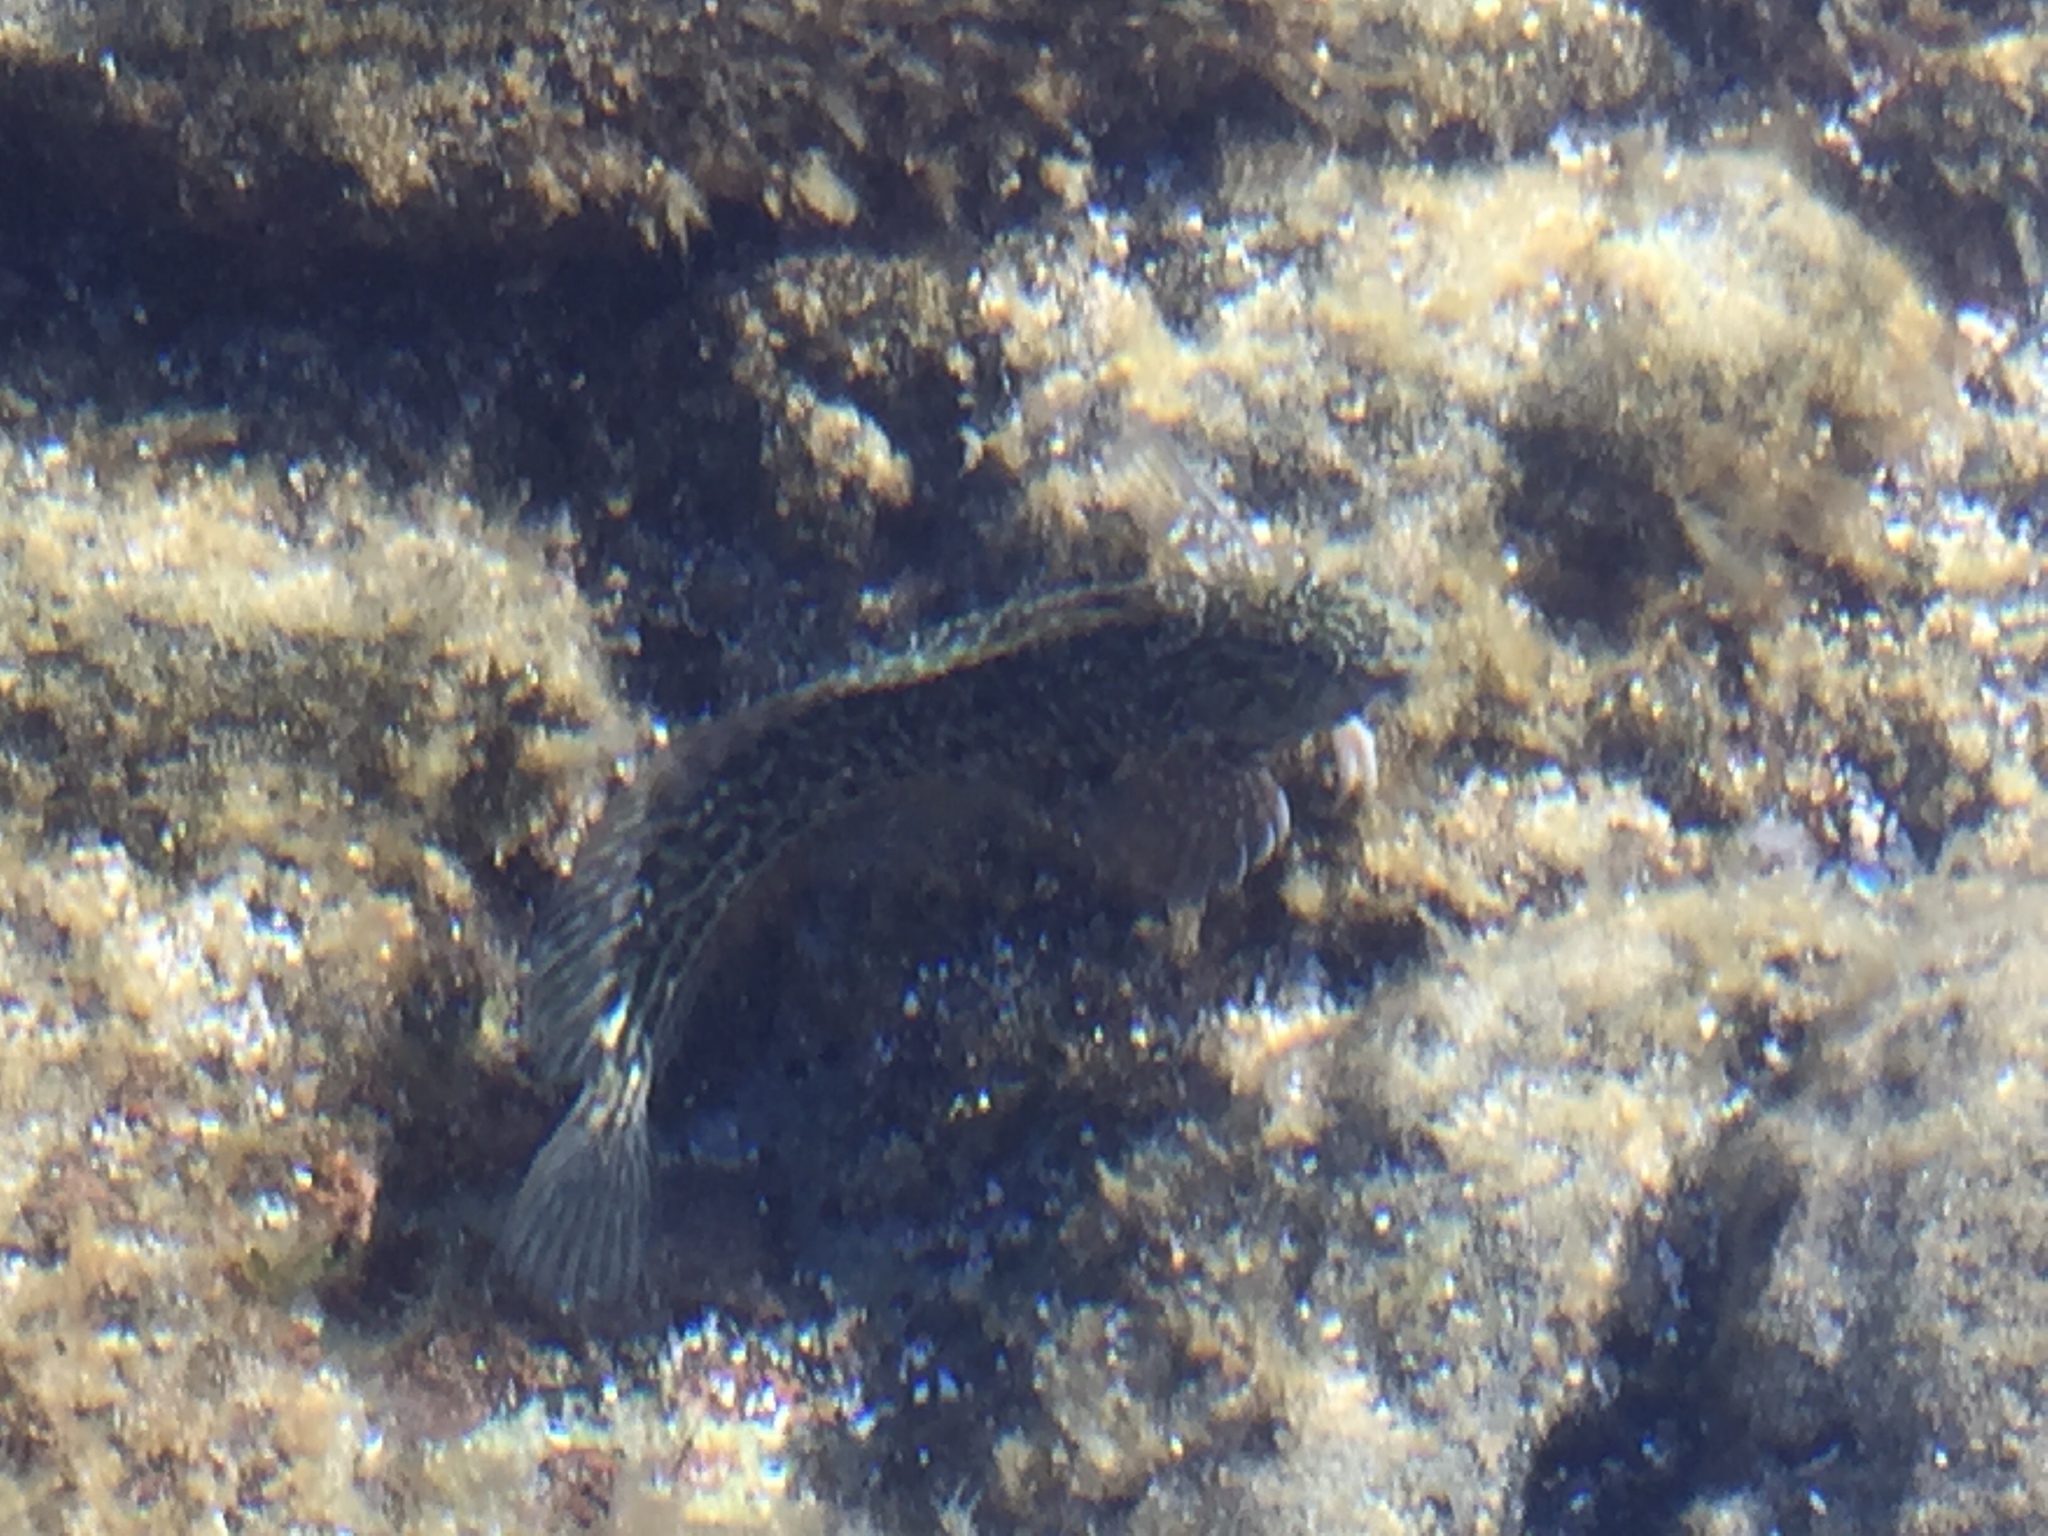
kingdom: Animalia
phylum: Chordata
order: Perciformes
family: Blenniidae
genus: Parablennius
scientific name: Parablennius parvicornis
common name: Rock-pool blenny
